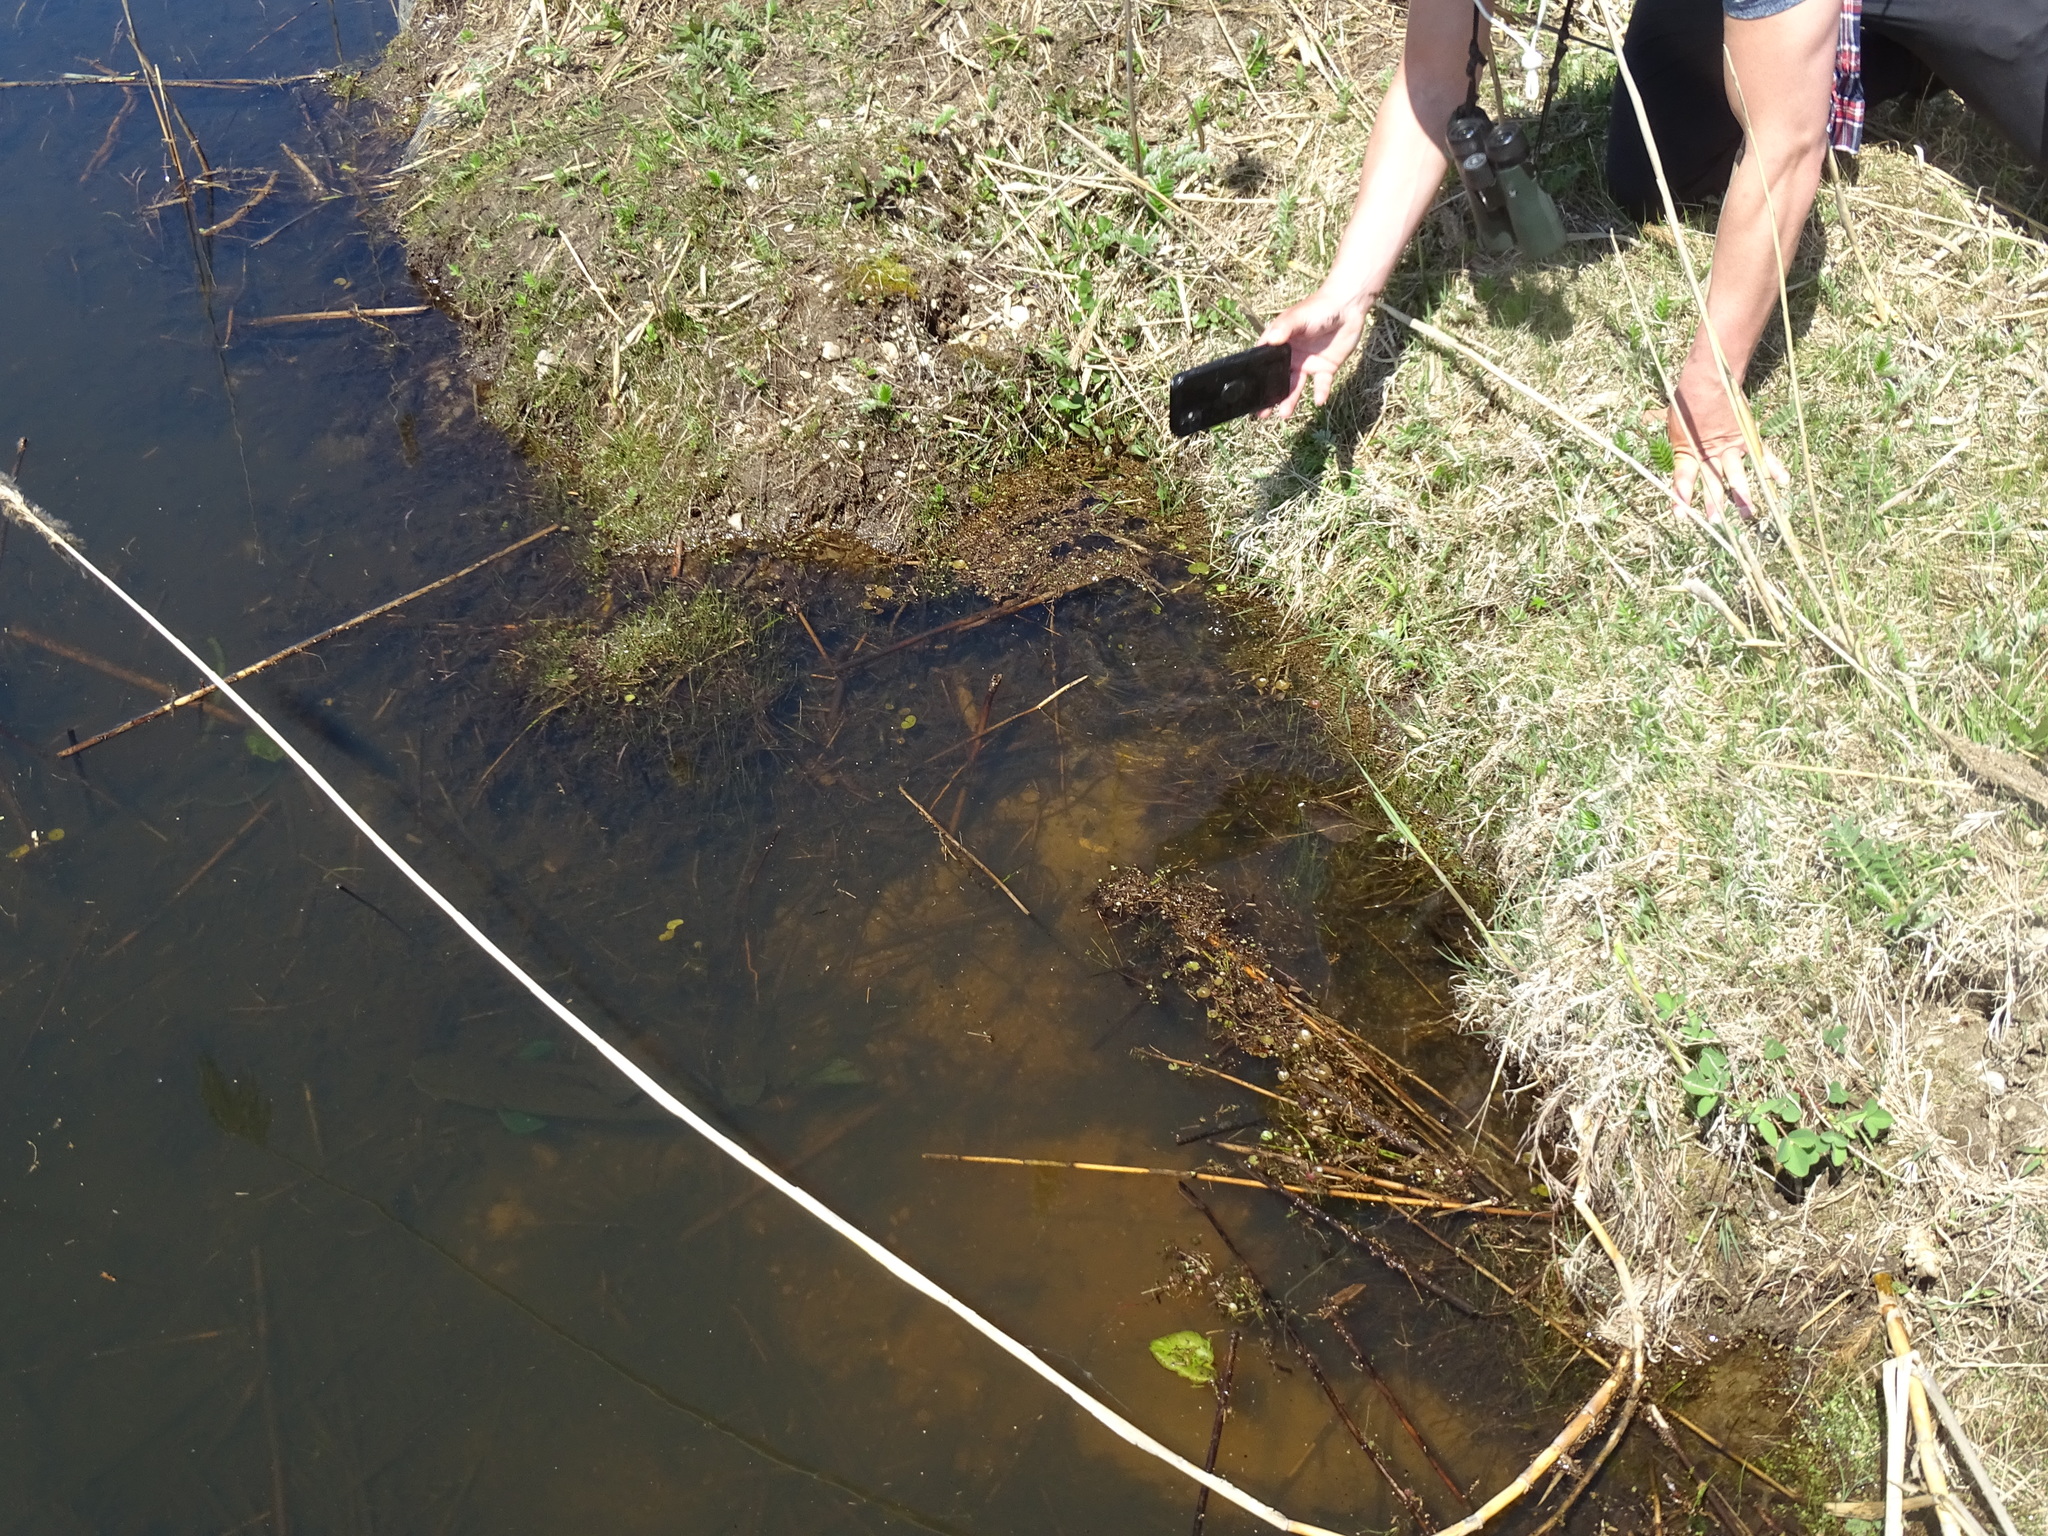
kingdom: Animalia
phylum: Chordata
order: Amiiformes
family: Amiidae
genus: Amia
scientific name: Amia calva
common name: Bowfin
